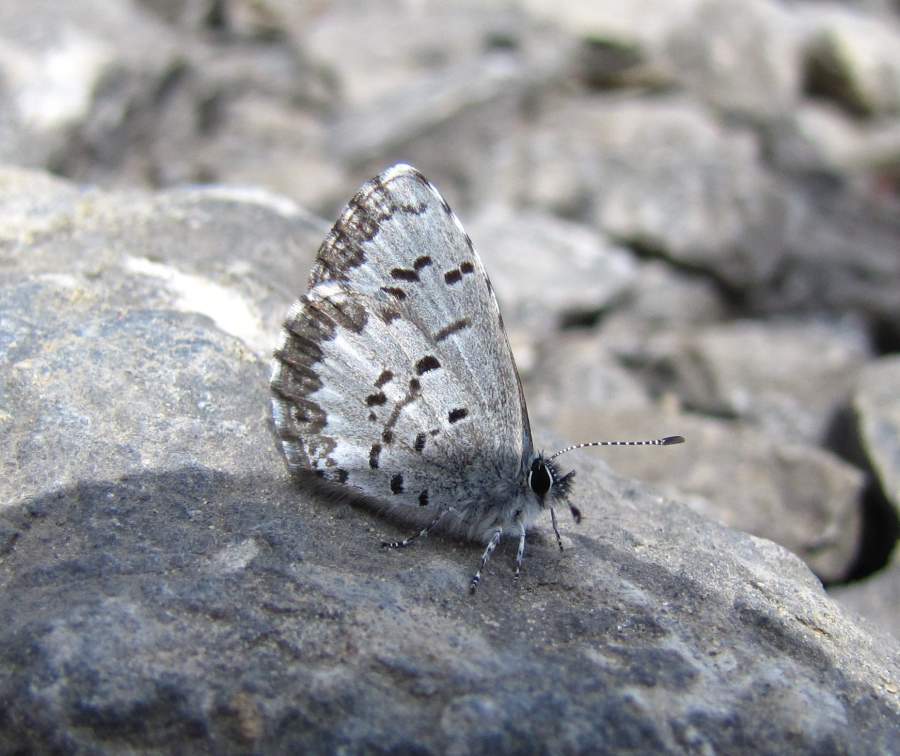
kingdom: Animalia
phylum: Arthropoda
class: Insecta
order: Lepidoptera
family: Lycaenidae
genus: Celastrina
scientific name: Celastrina lucia
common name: Lucia azure
